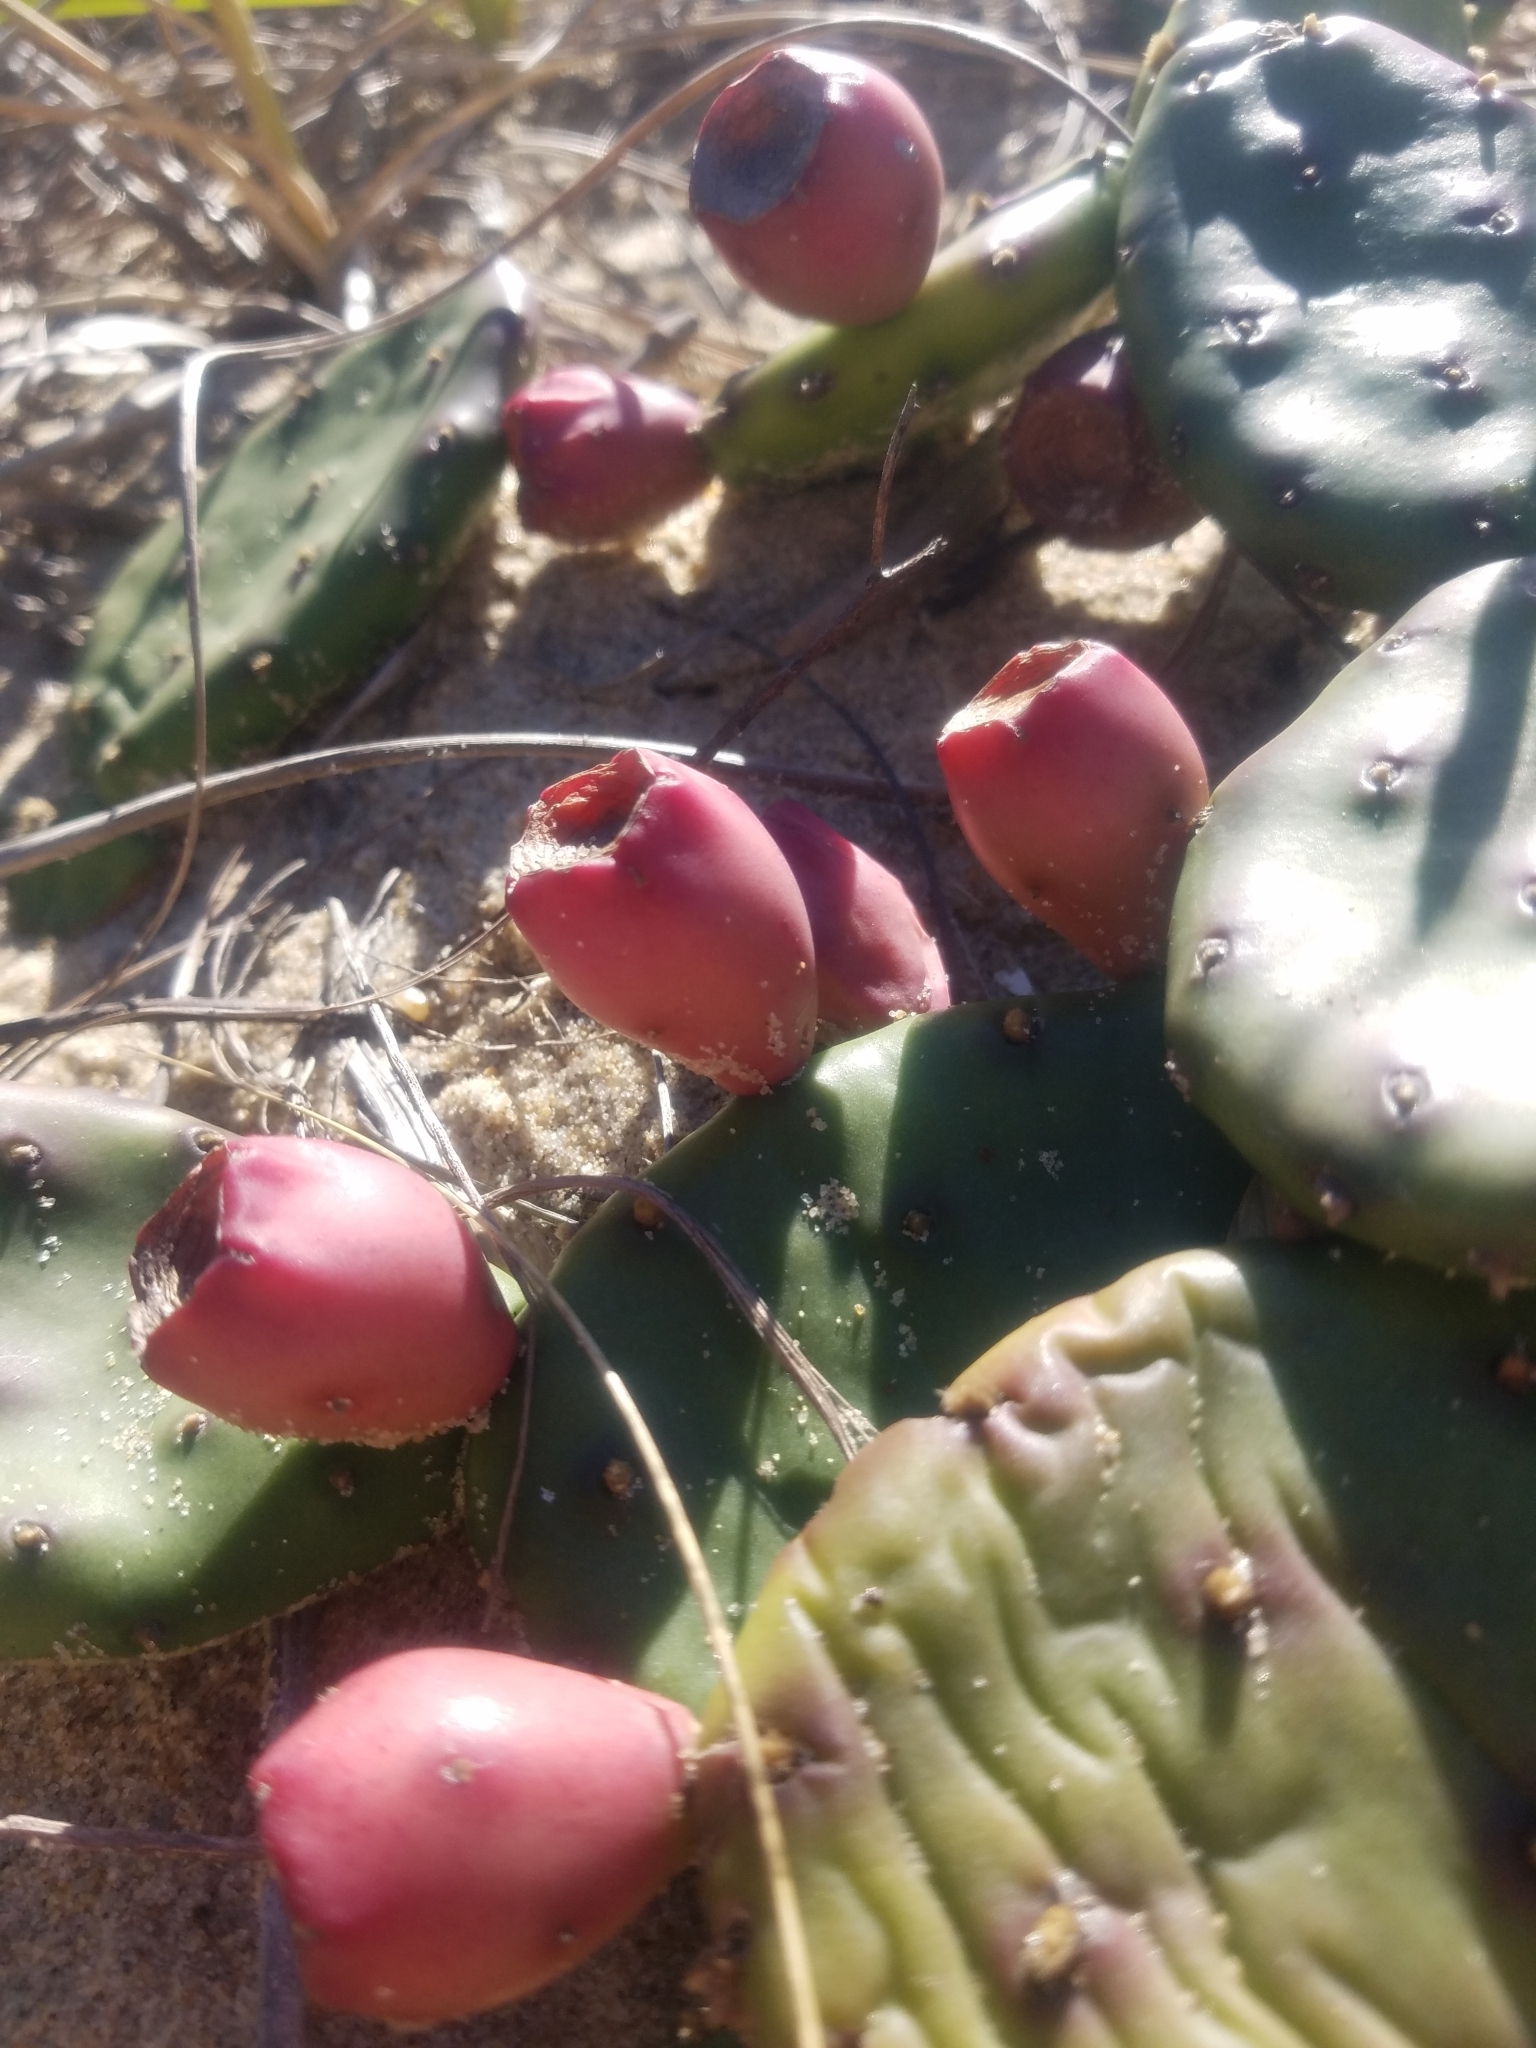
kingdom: Plantae
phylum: Tracheophyta
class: Magnoliopsida
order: Caryophyllales
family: Cactaceae
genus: Opuntia
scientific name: Opuntia humifusa
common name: Eastern prickly-pear
